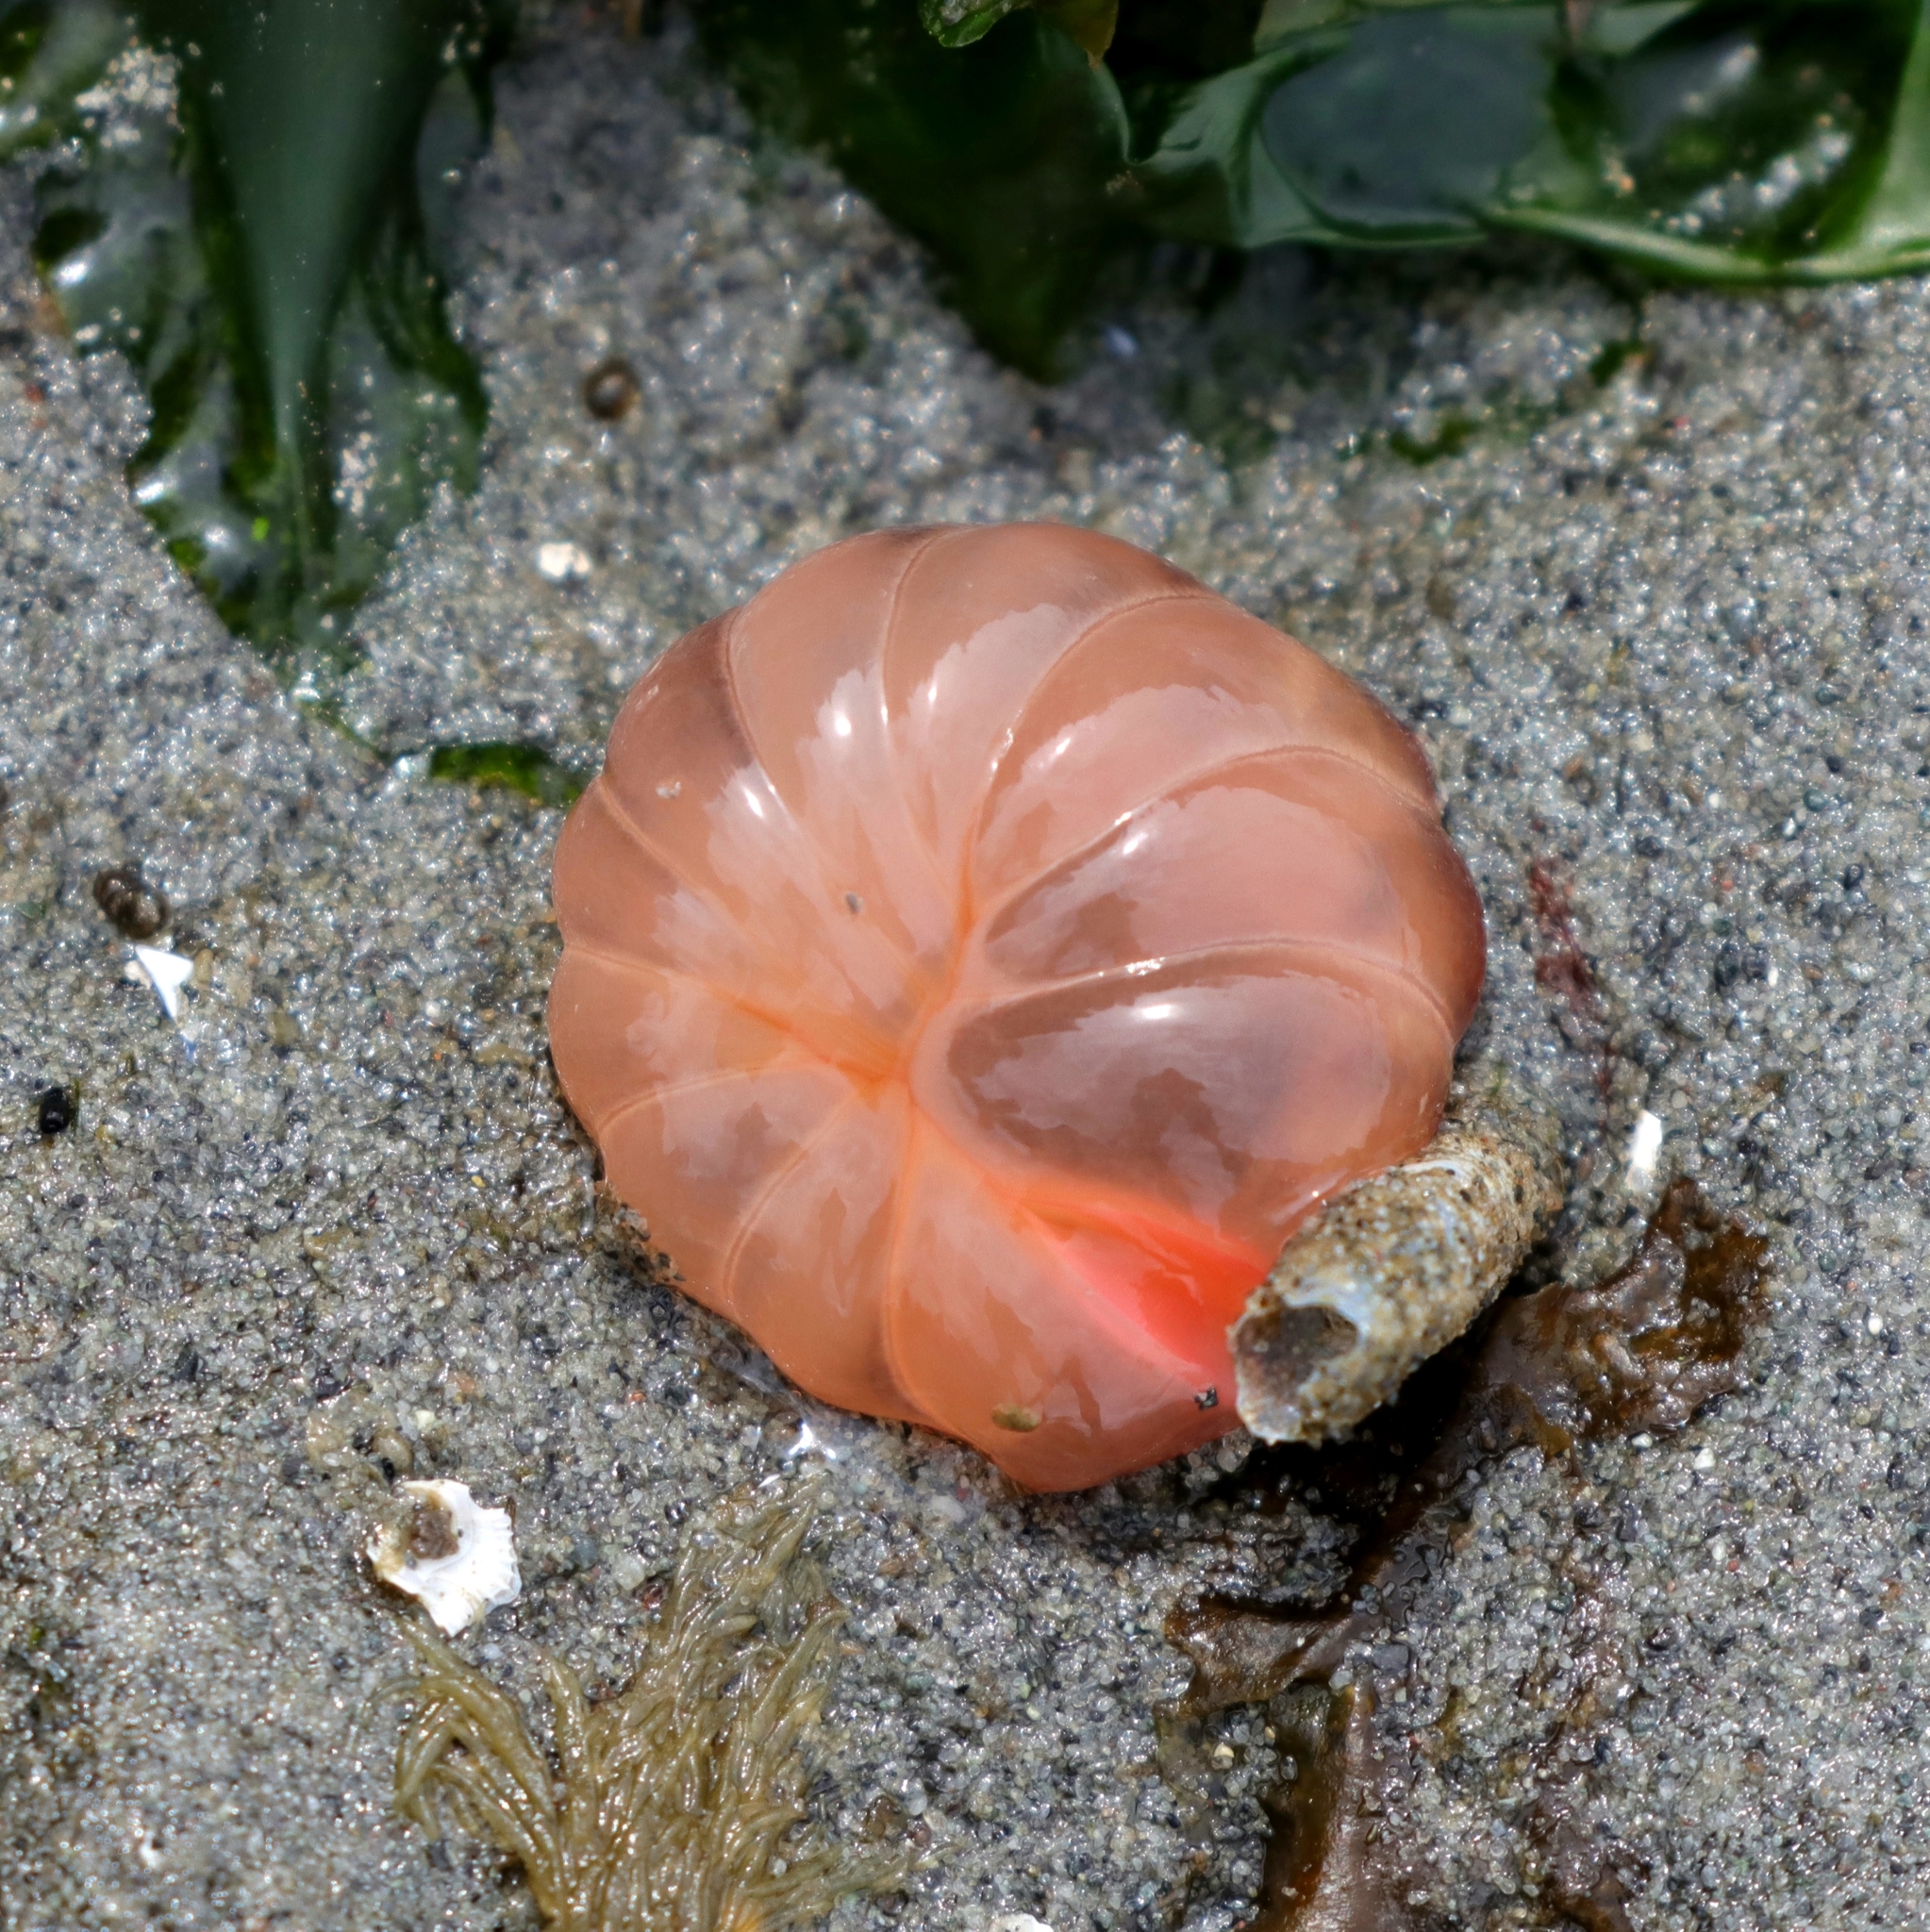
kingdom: Animalia
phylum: Cnidaria
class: Anthozoa
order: Actiniaria
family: Peachiidae
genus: Peachia
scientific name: Peachia quinquecapitata
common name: Twelve-tentacled parasitic anemone
